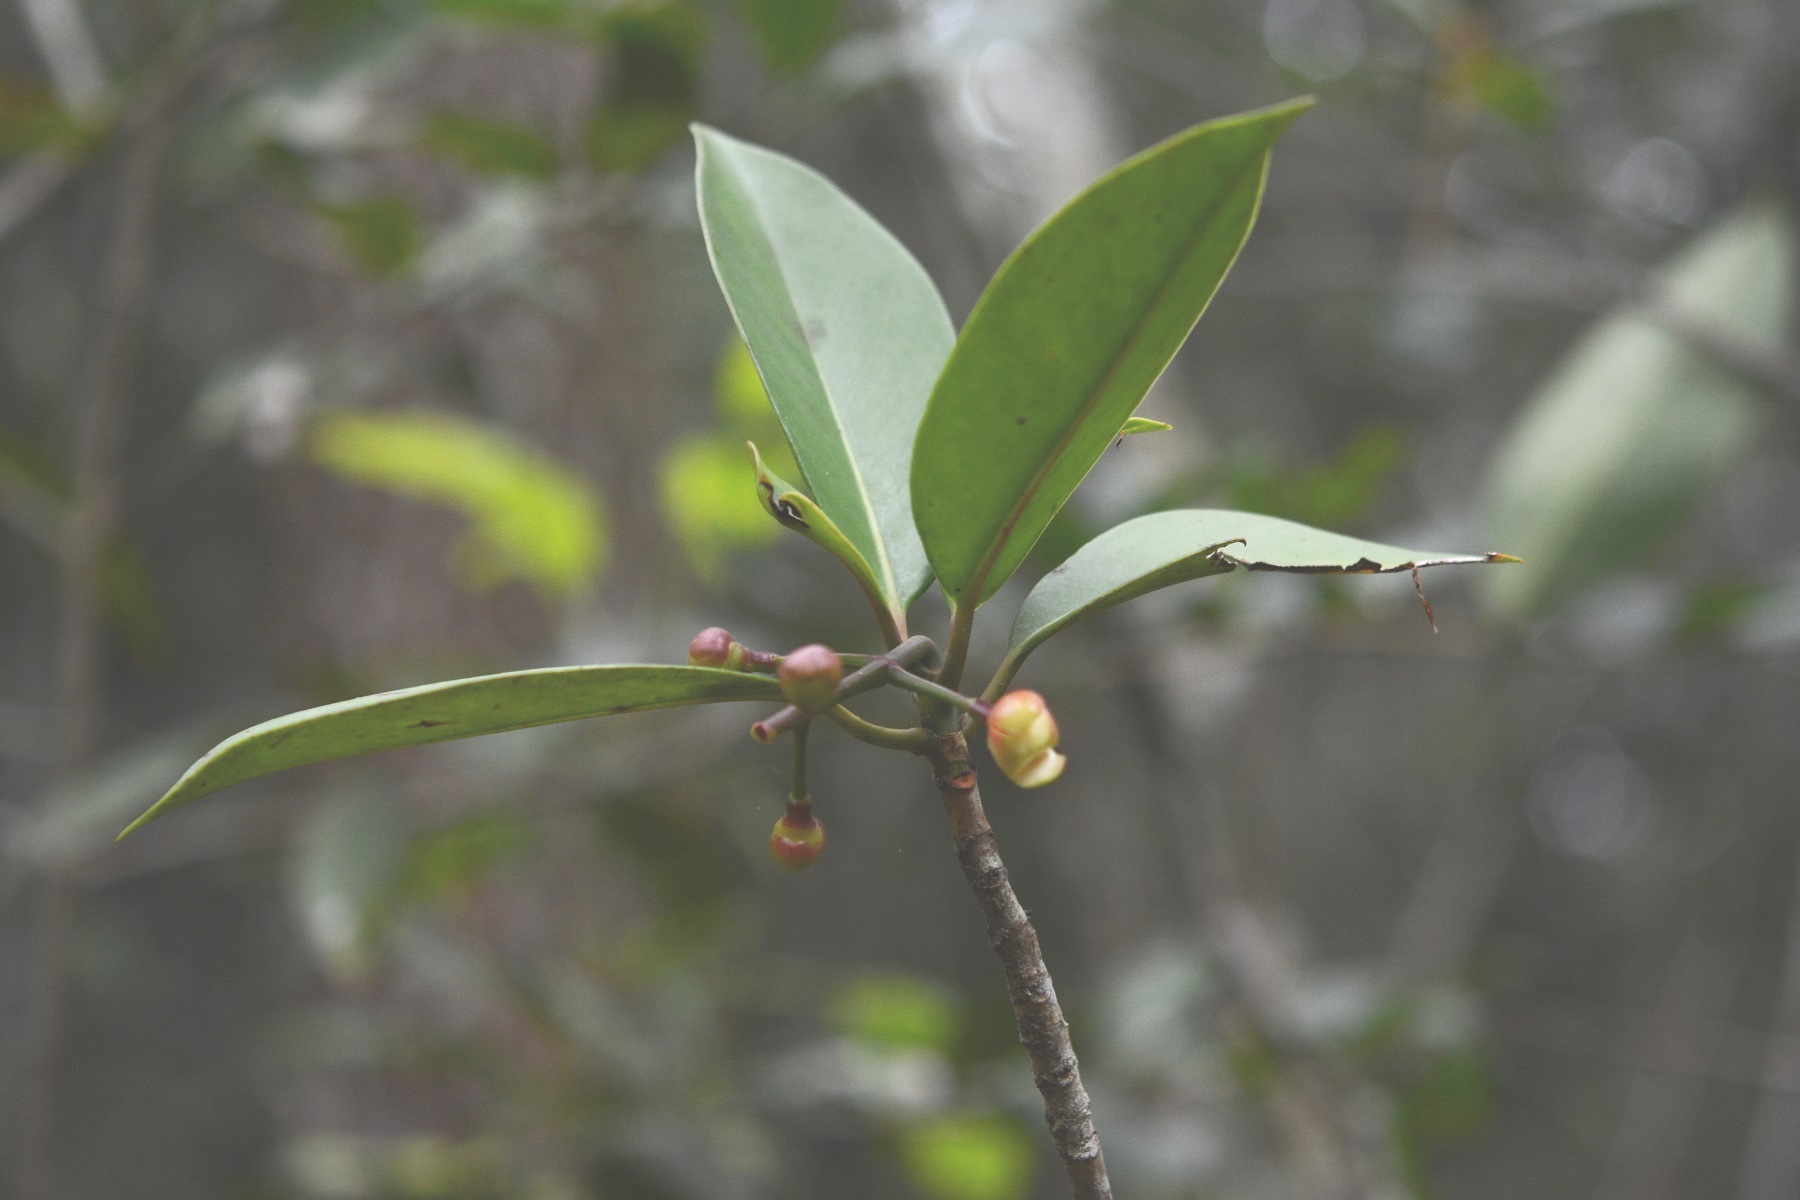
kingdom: Plantae
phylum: Tracheophyta
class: Magnoliopsida
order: Malpighiales
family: Clusiaceae
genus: Clusia
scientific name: Clusia minor
